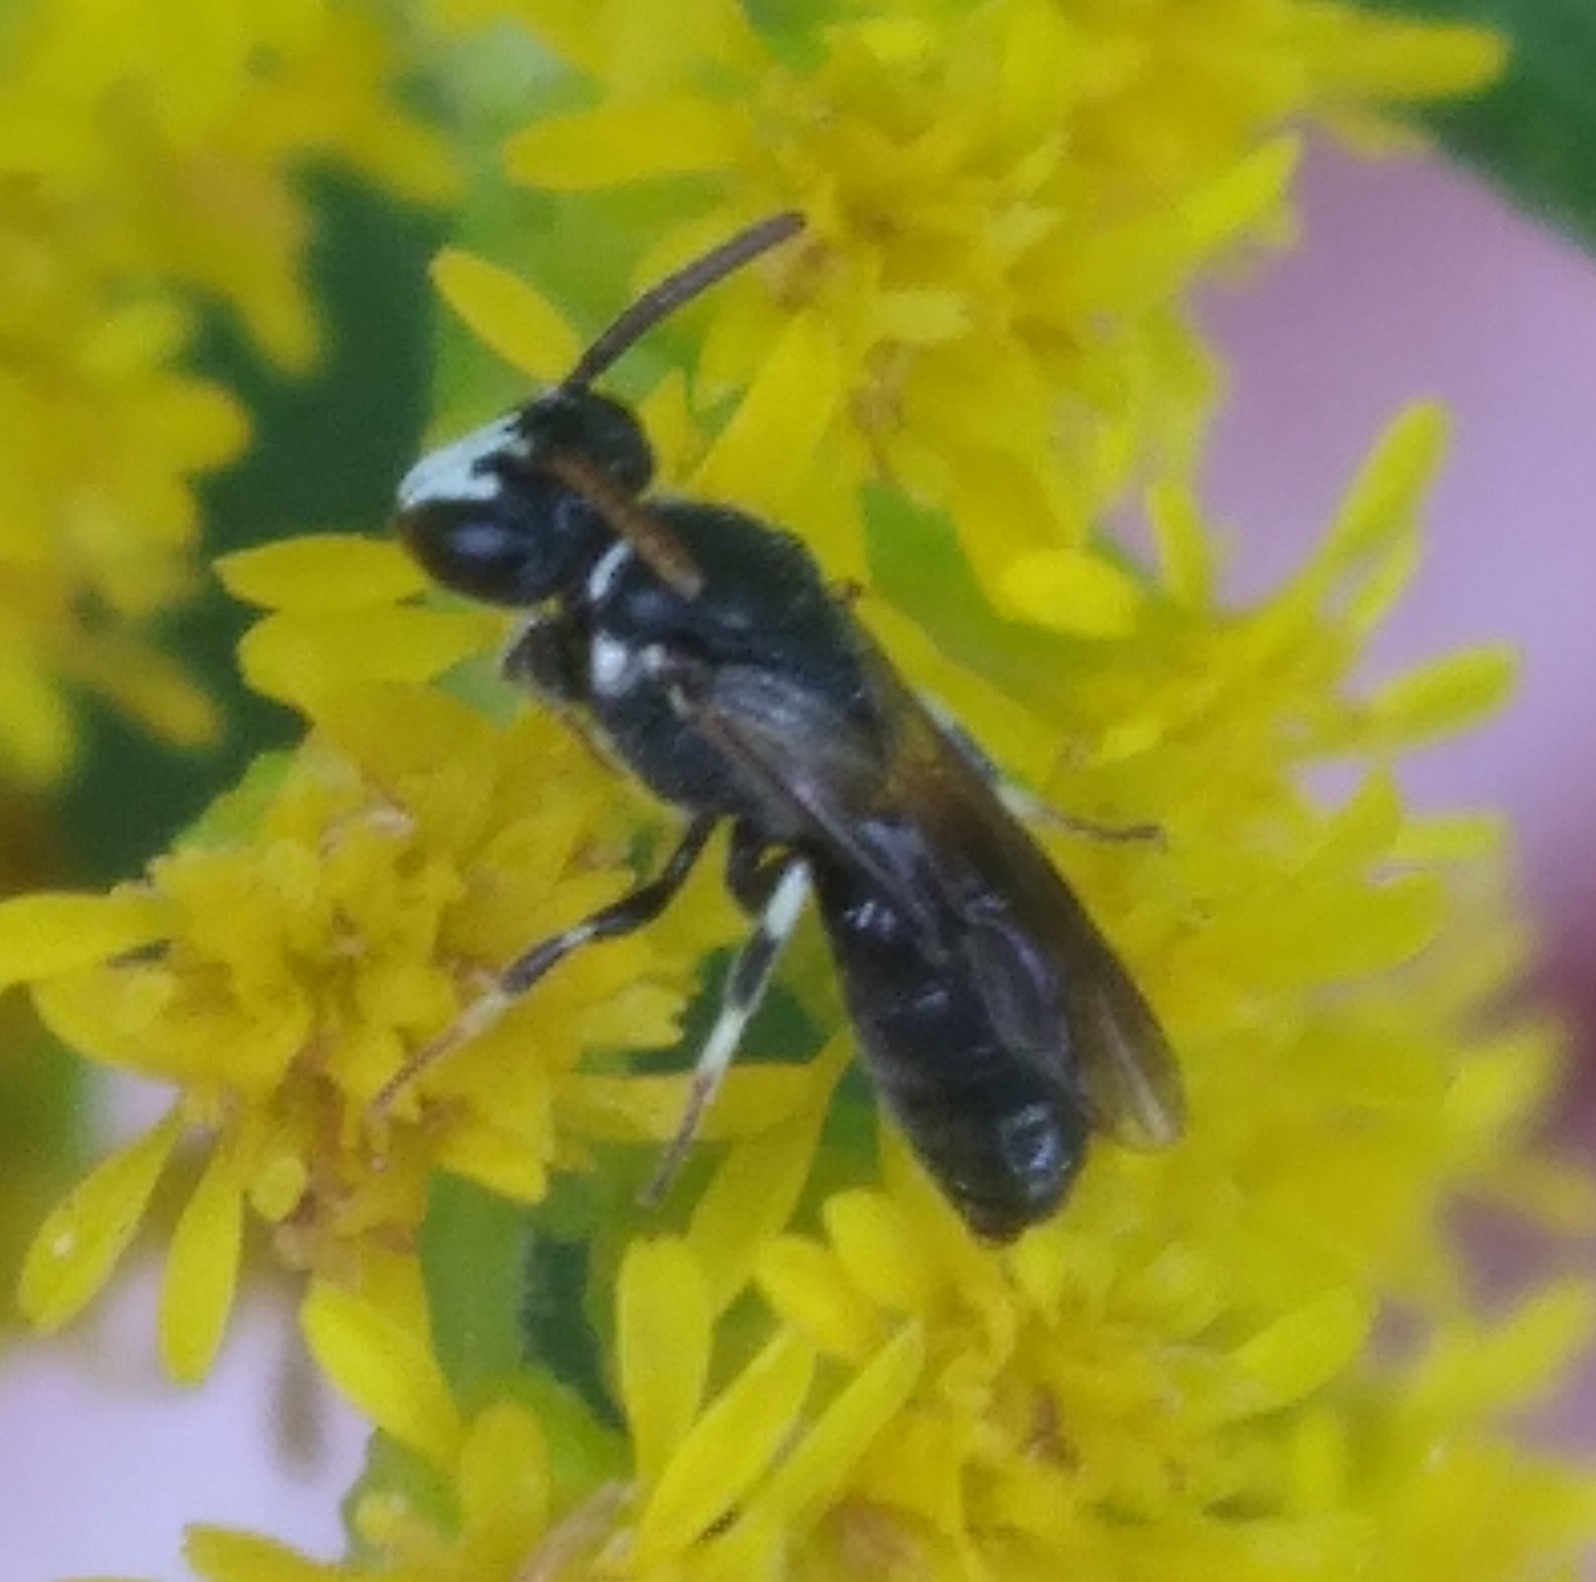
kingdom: Animalia
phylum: Arthropoda
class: Insecta
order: Hymenoptera
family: Colletidae
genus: Hylaeus
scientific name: Hylaeus leptocephalus
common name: Slender-faced masked bee
